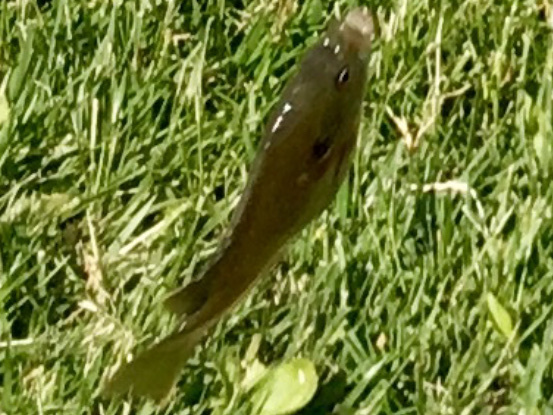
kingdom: Animalia
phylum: Chordata
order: Perciformes
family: Centrarchidae
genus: Lepomis
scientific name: Lepomis
